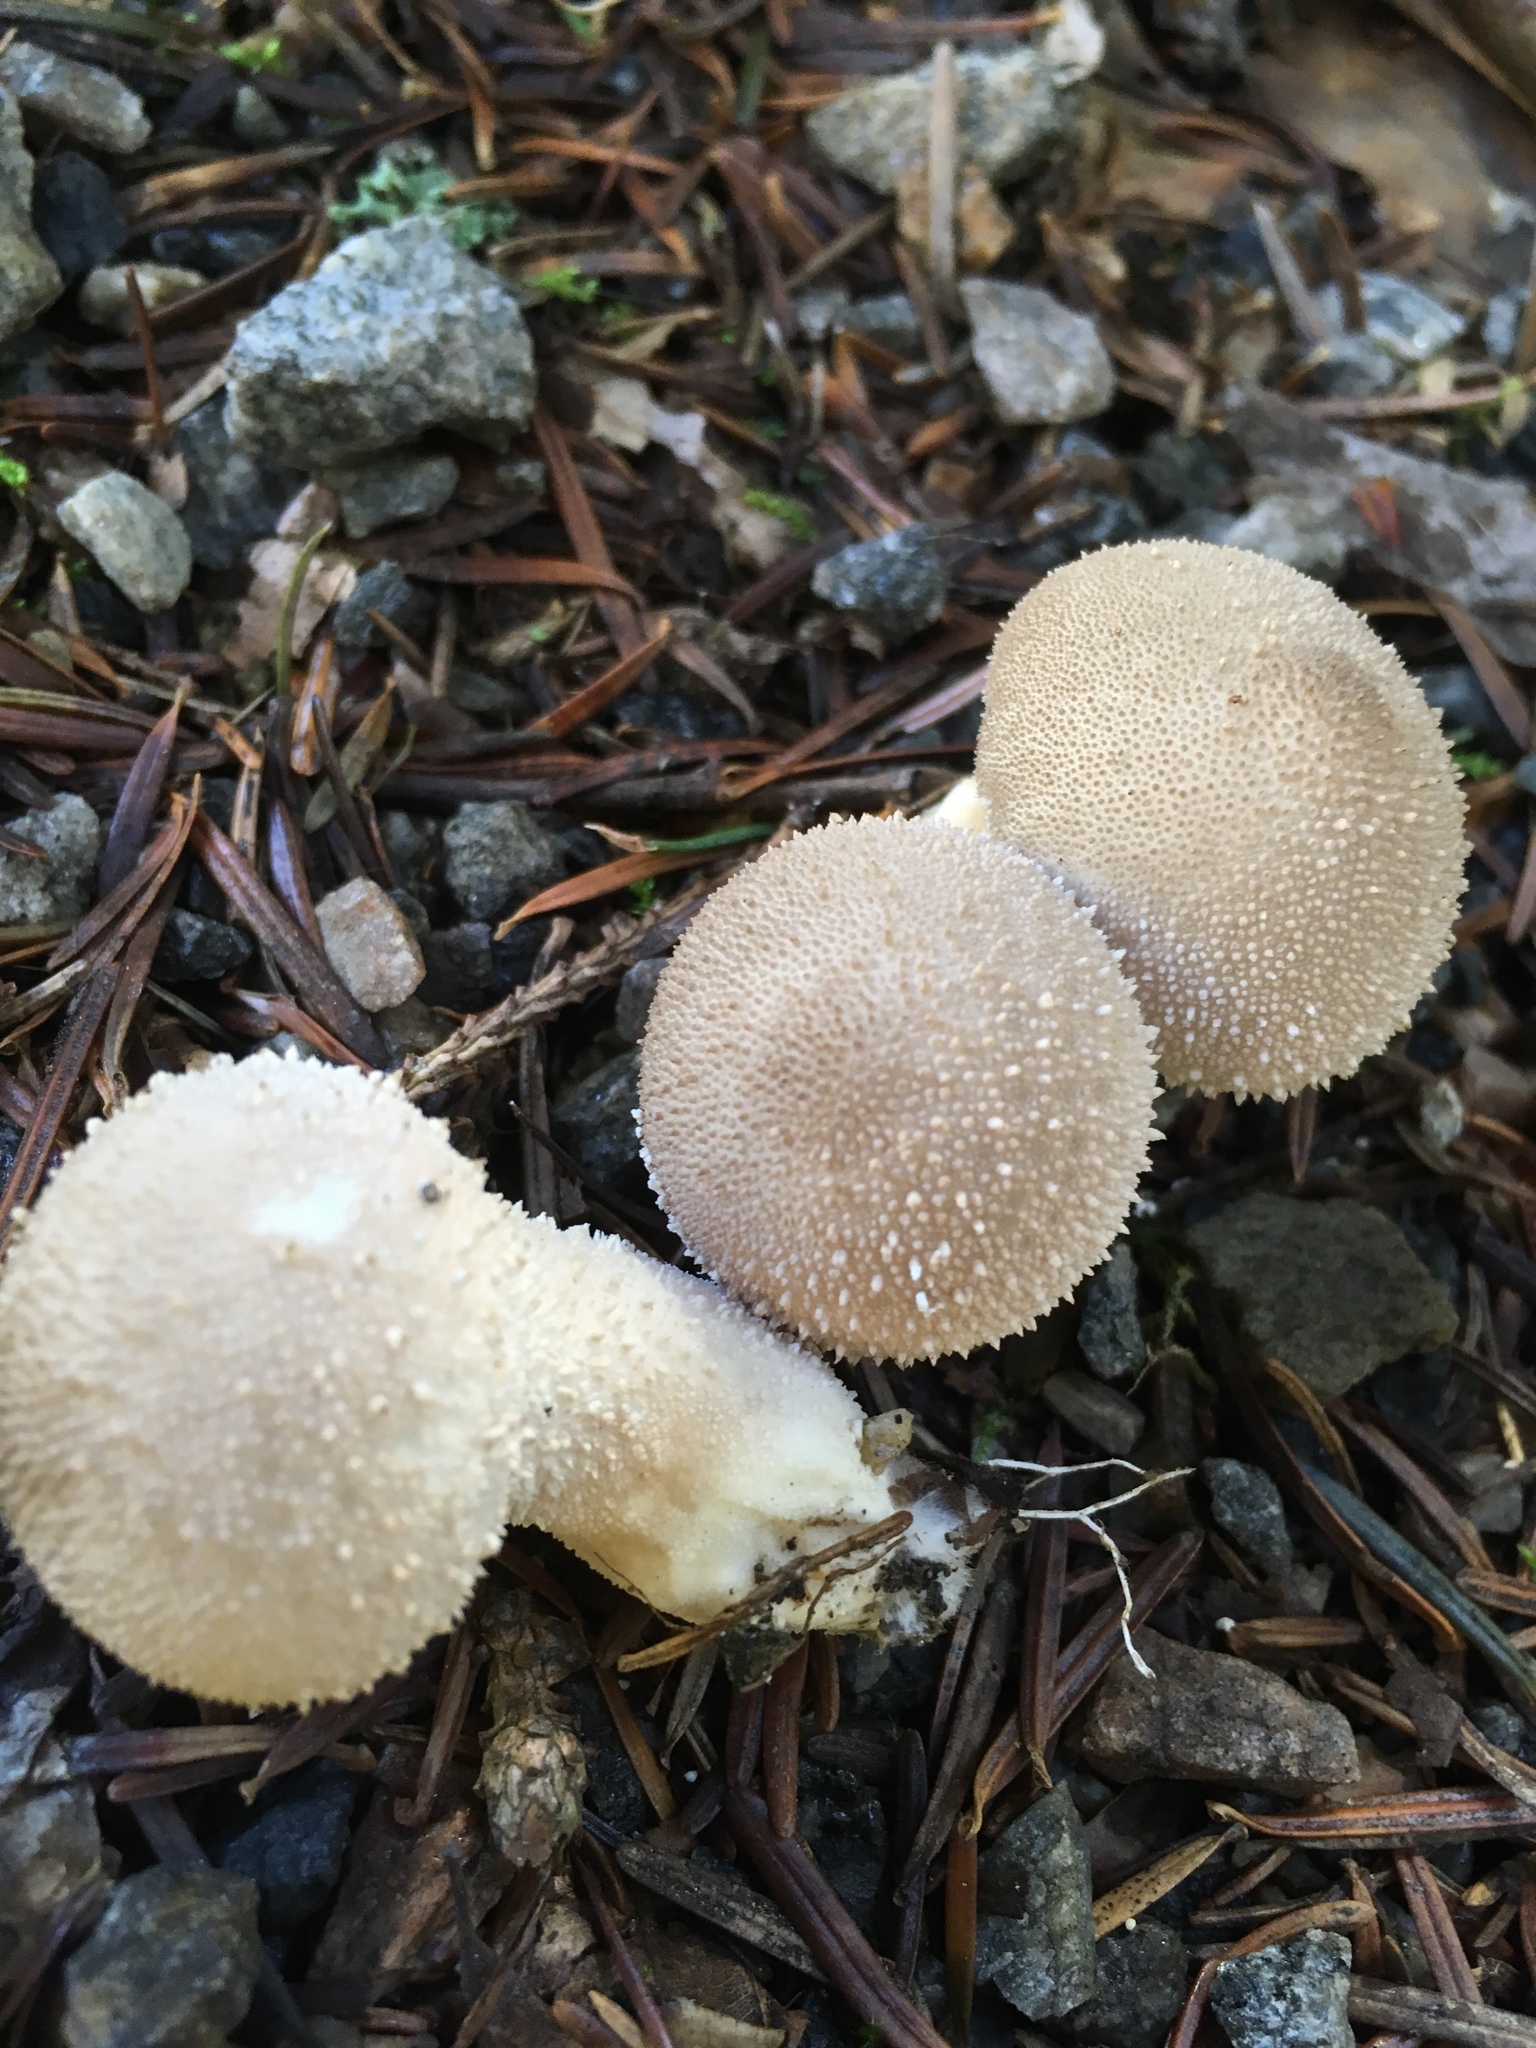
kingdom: Fungi
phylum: Basidiomycota
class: Agaricomycetes
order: Agaricales
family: Lycoperdaceae
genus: Lycoperdon
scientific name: Lycoperdon perlatum
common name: Common puffball
